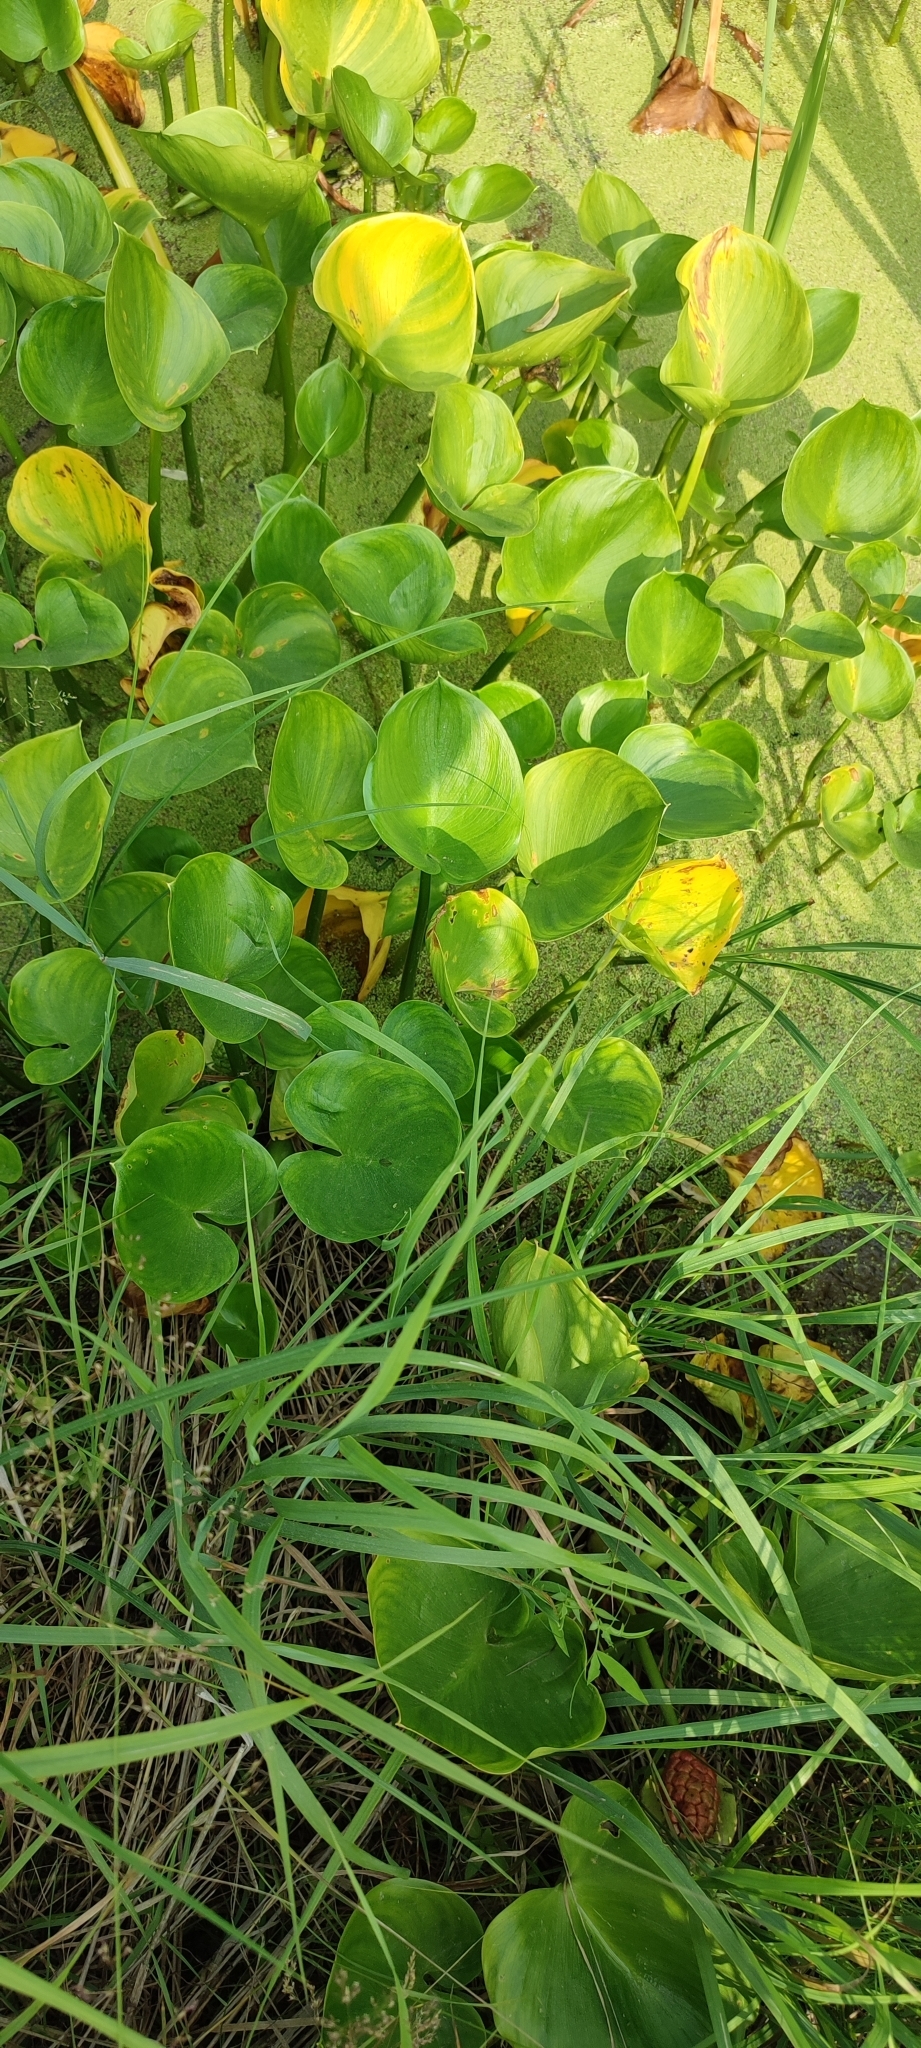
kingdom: Plantae
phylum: Tracheophyta
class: Liliopsida
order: Alismatales
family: Araceae
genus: Calla
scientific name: Calla palustris
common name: Bog arum
